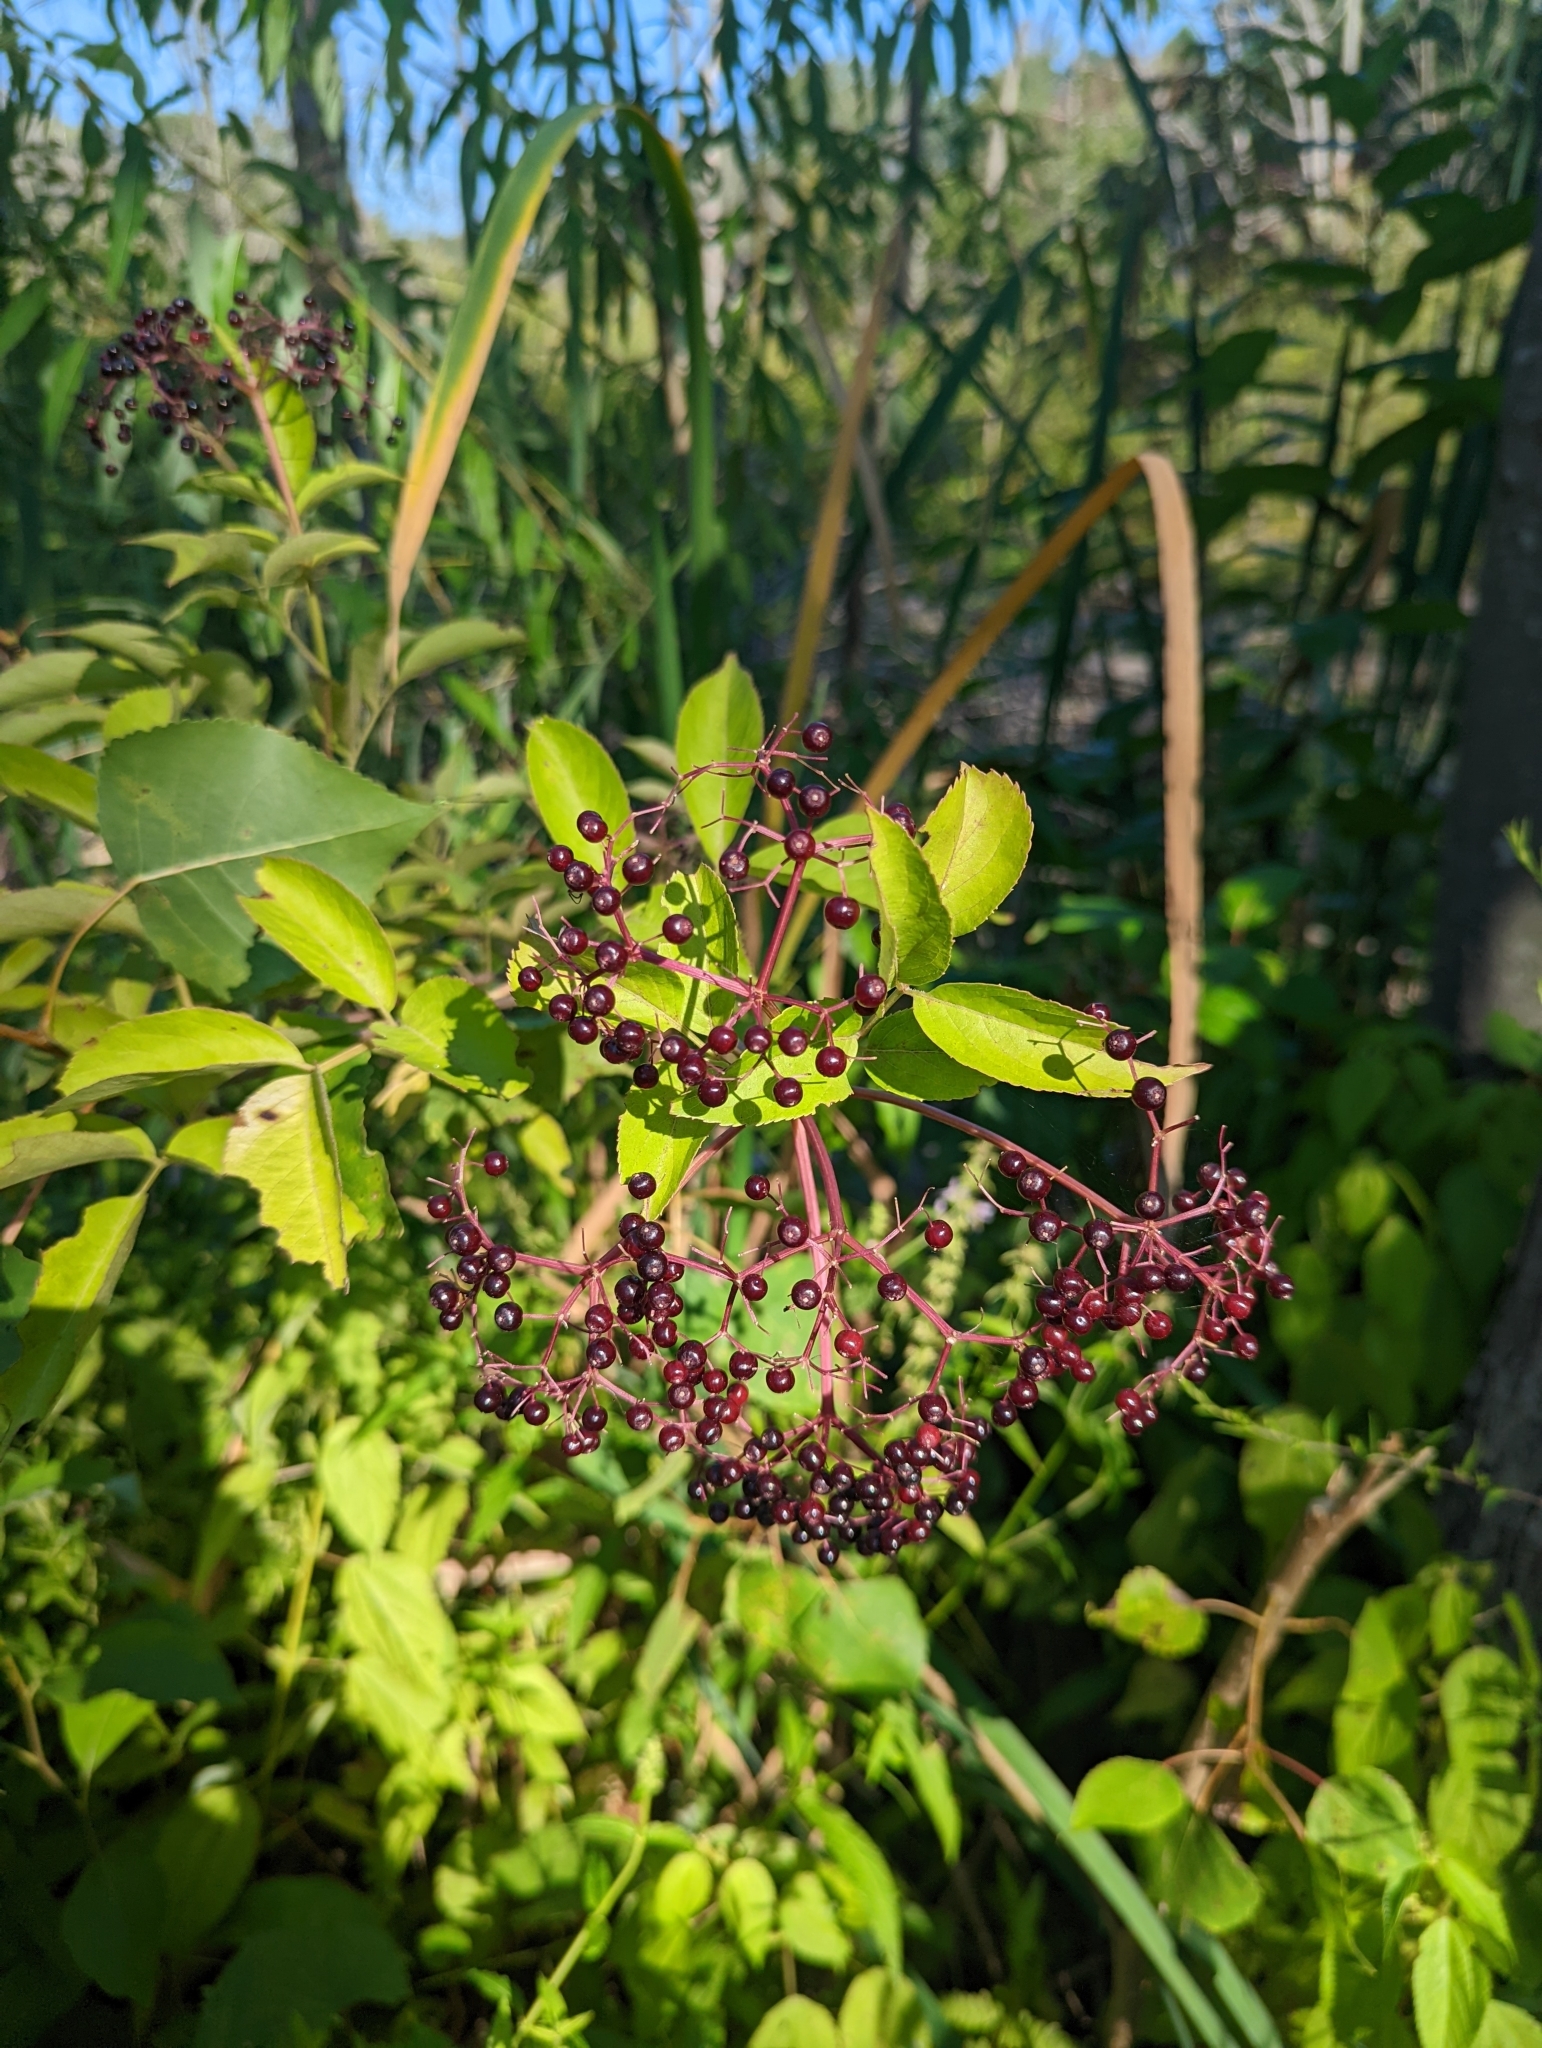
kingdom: Plantae
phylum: Tracheophyta
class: Magnoliopsida
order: Dipsacales
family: Viburnaceae
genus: Sambucus
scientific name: Sambucus canadensis
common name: American elder
